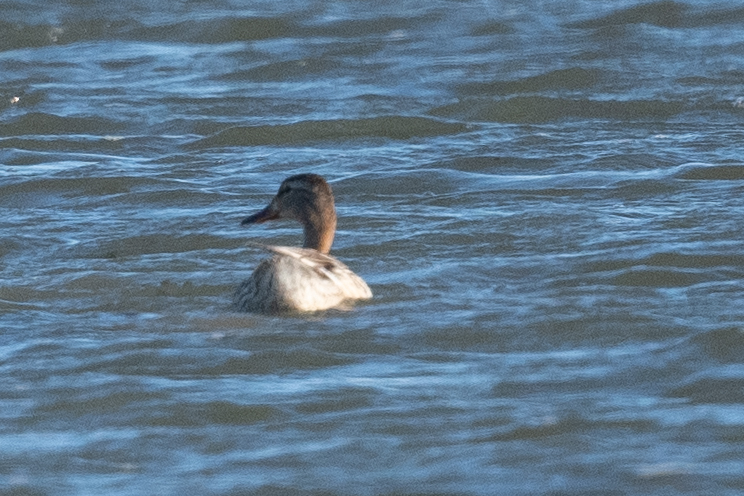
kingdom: Animalia
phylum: Chordata
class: Aves
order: Anseriformes
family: Anatidae
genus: Anas
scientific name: Anas platyrhynchos
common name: Mallard
